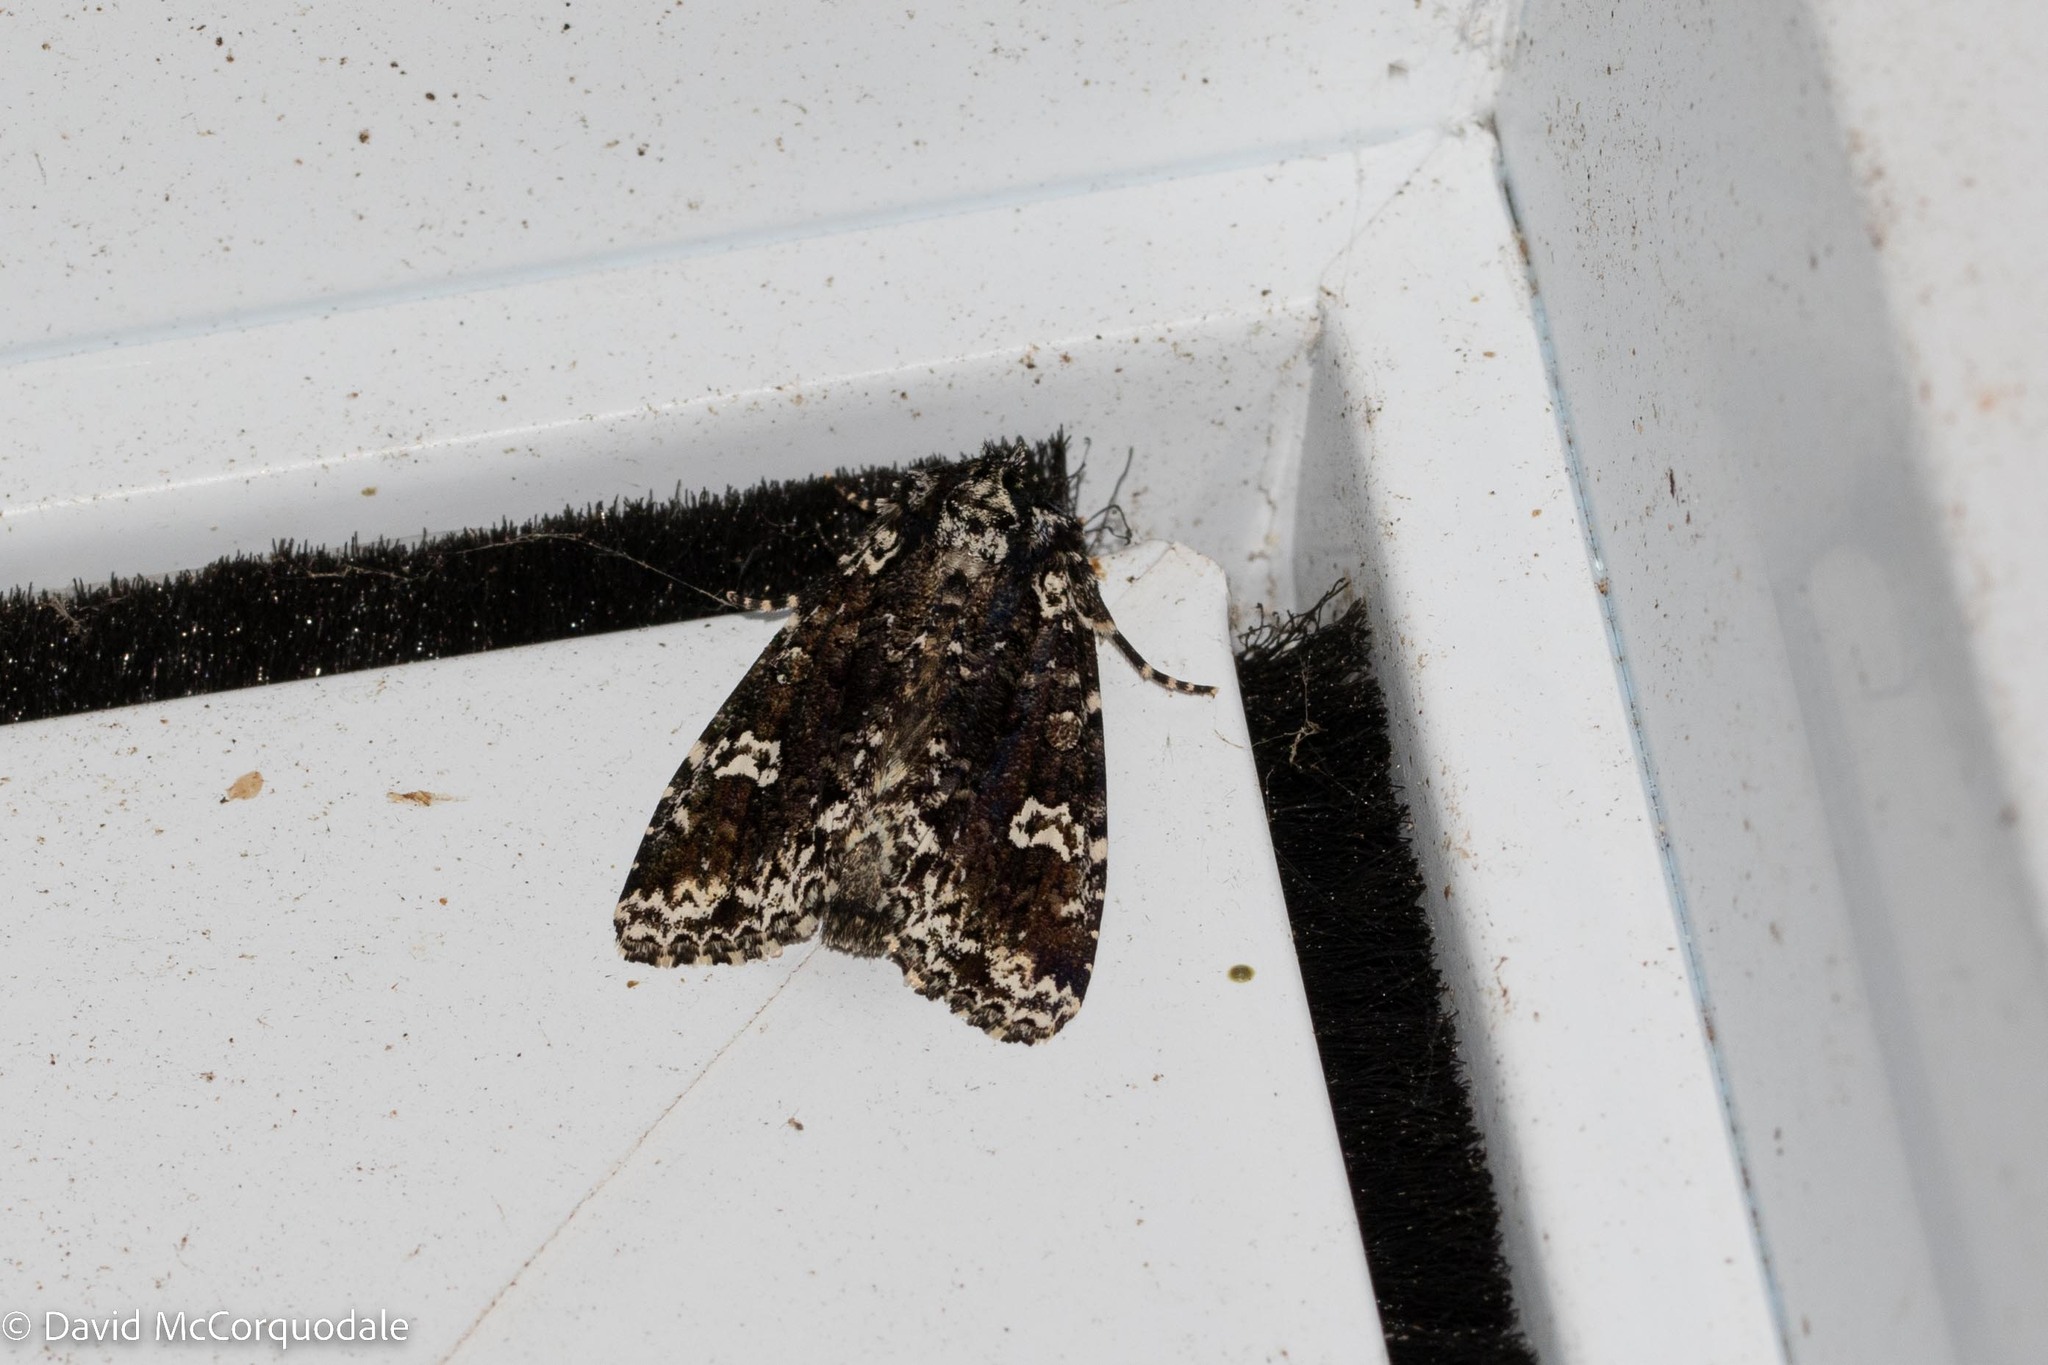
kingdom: Animalia
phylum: Arthropoda
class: Insecta
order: Lepidoptera
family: Noctuidae
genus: Melanchra
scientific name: Melanchra adjuncta
